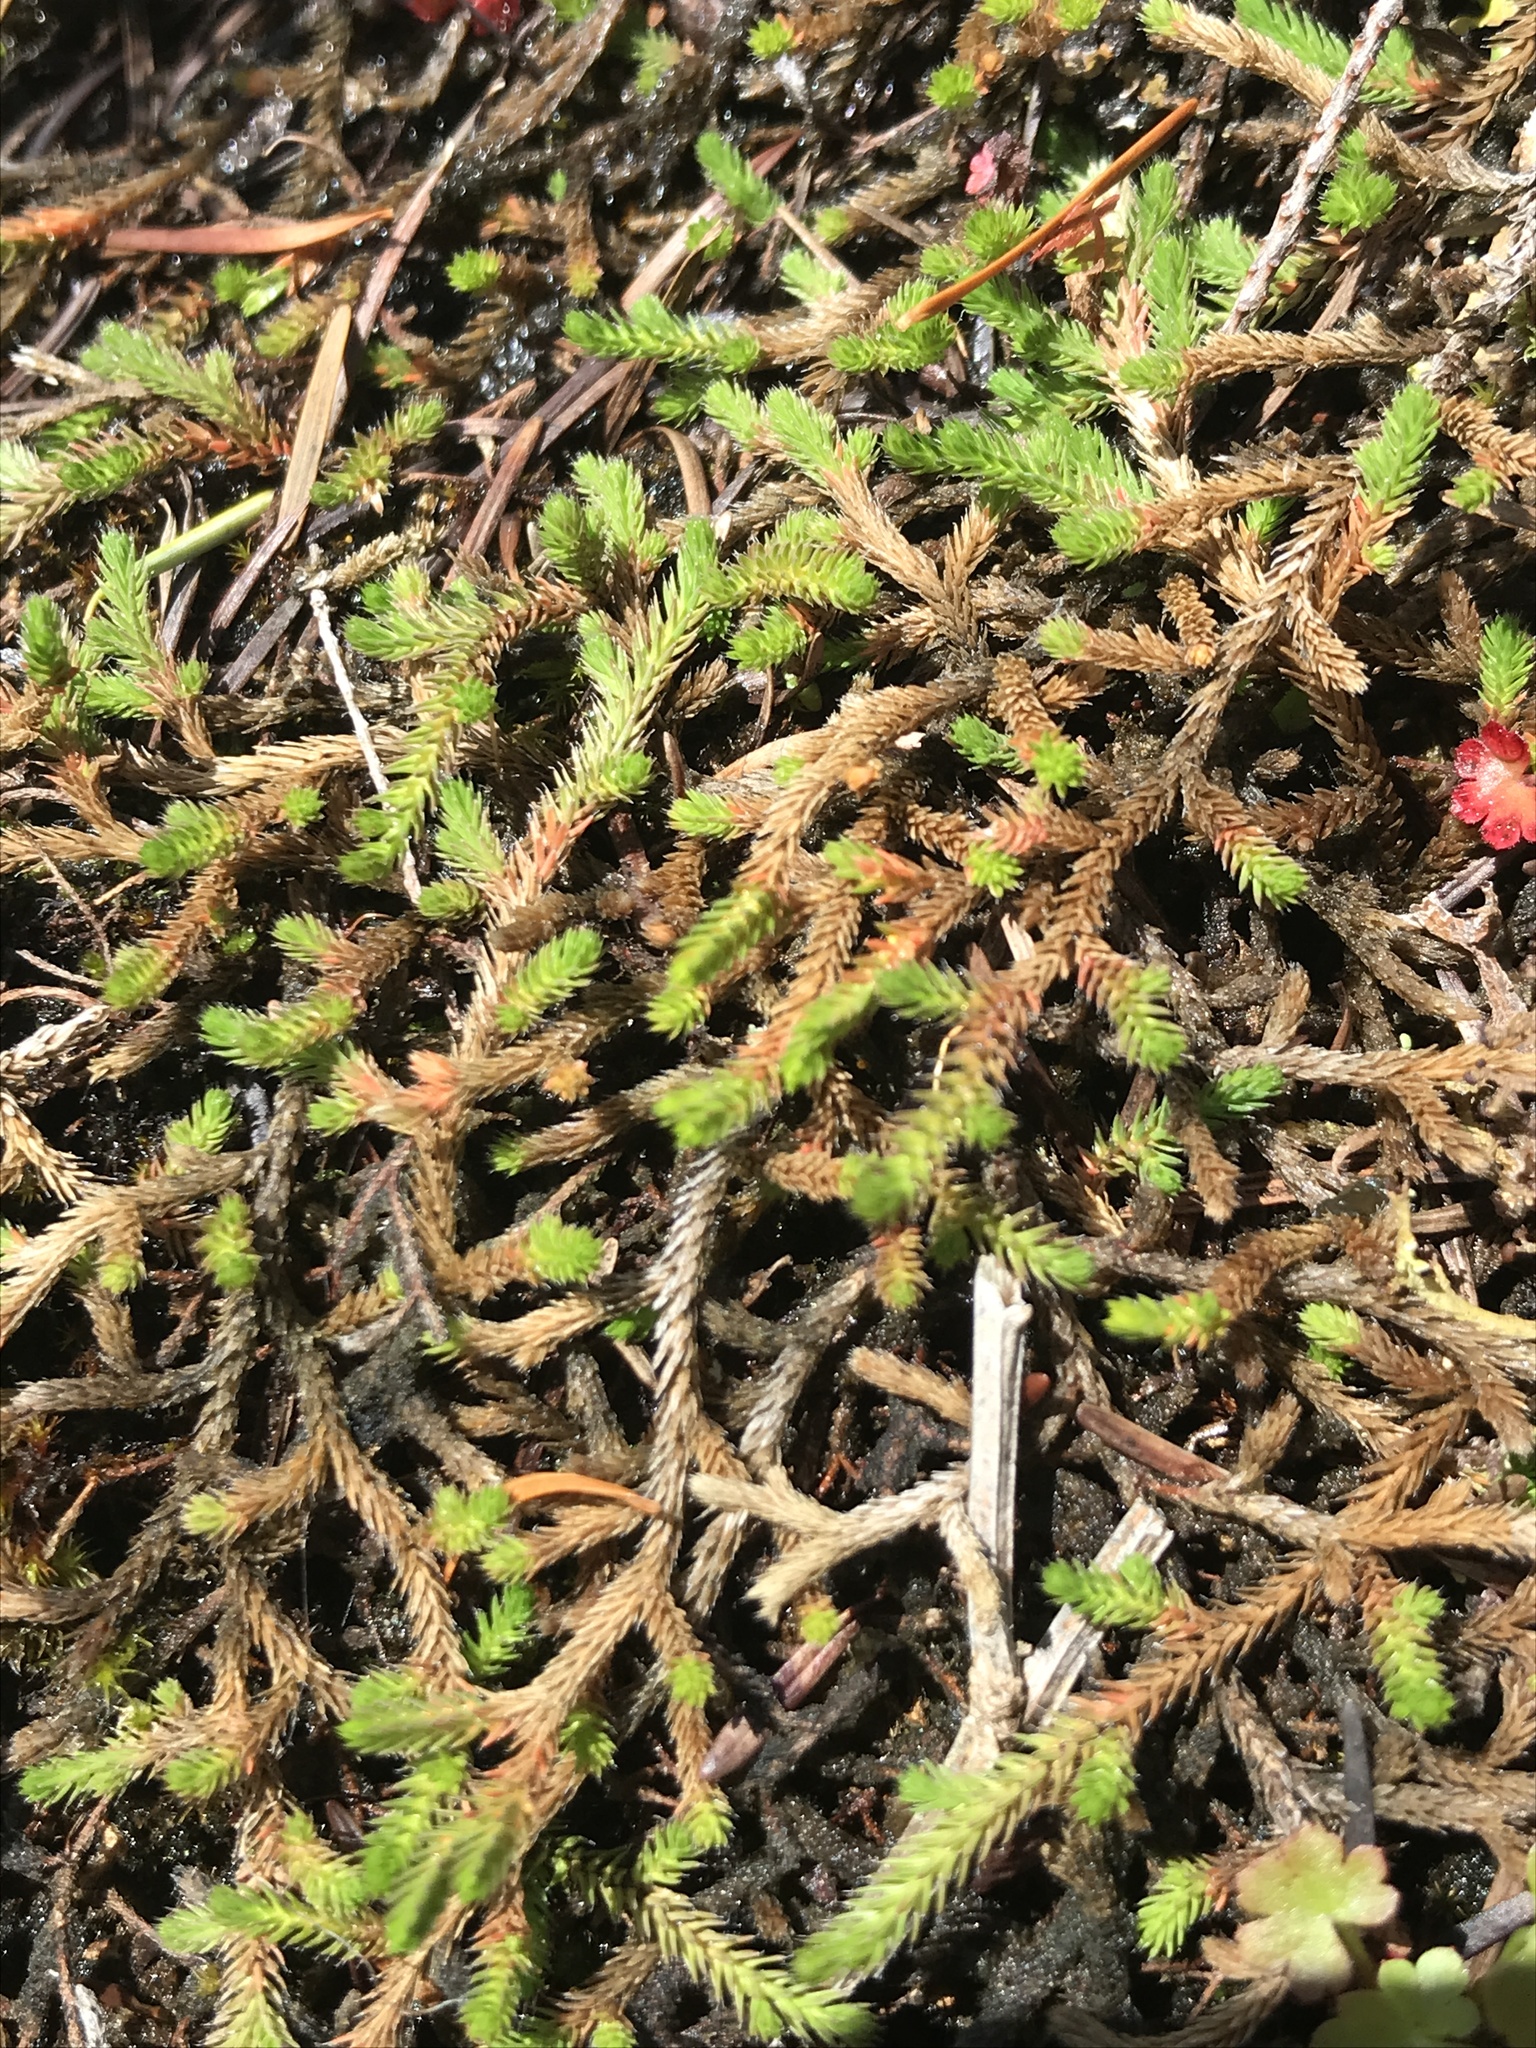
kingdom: Plantae
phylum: Tracheophyta
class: Lycopodiopsida
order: Selaginellales
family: Selaginellaceae
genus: Selaginella
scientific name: Selaginella wallacei
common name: Wallace's selaginella
